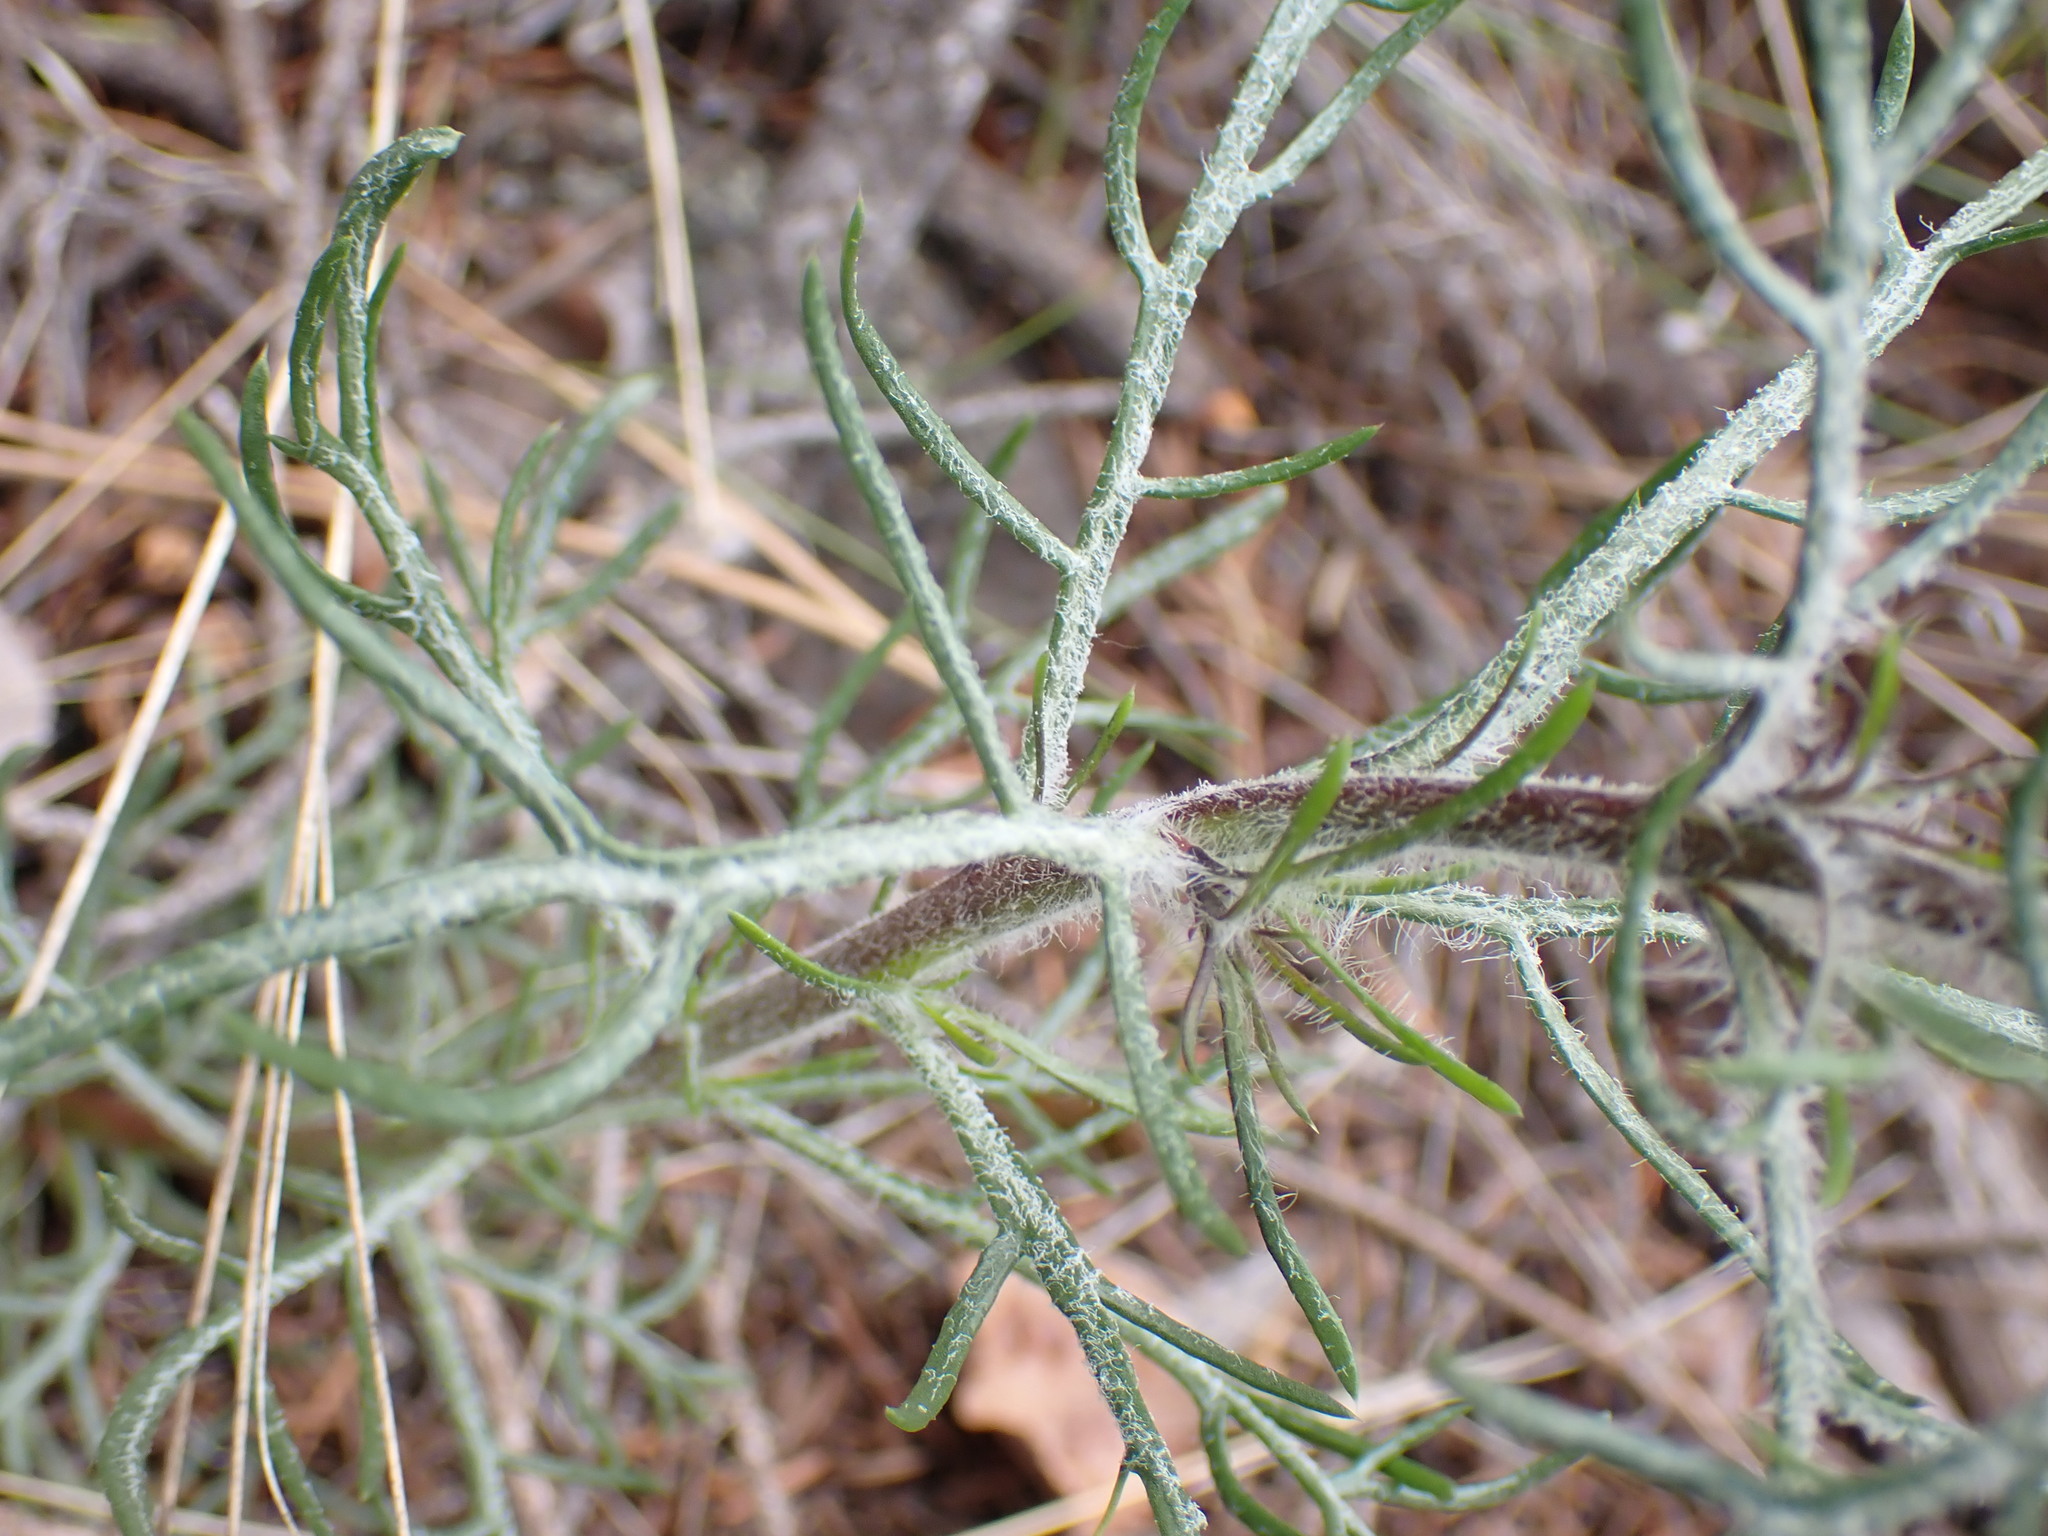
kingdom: Plantae
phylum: Tracheophyta
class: Magnoliopsida
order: Ericales
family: Polemoniaceae
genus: Ipomopsis
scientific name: Ipomopsis aggregata
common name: Scarlet gilia
